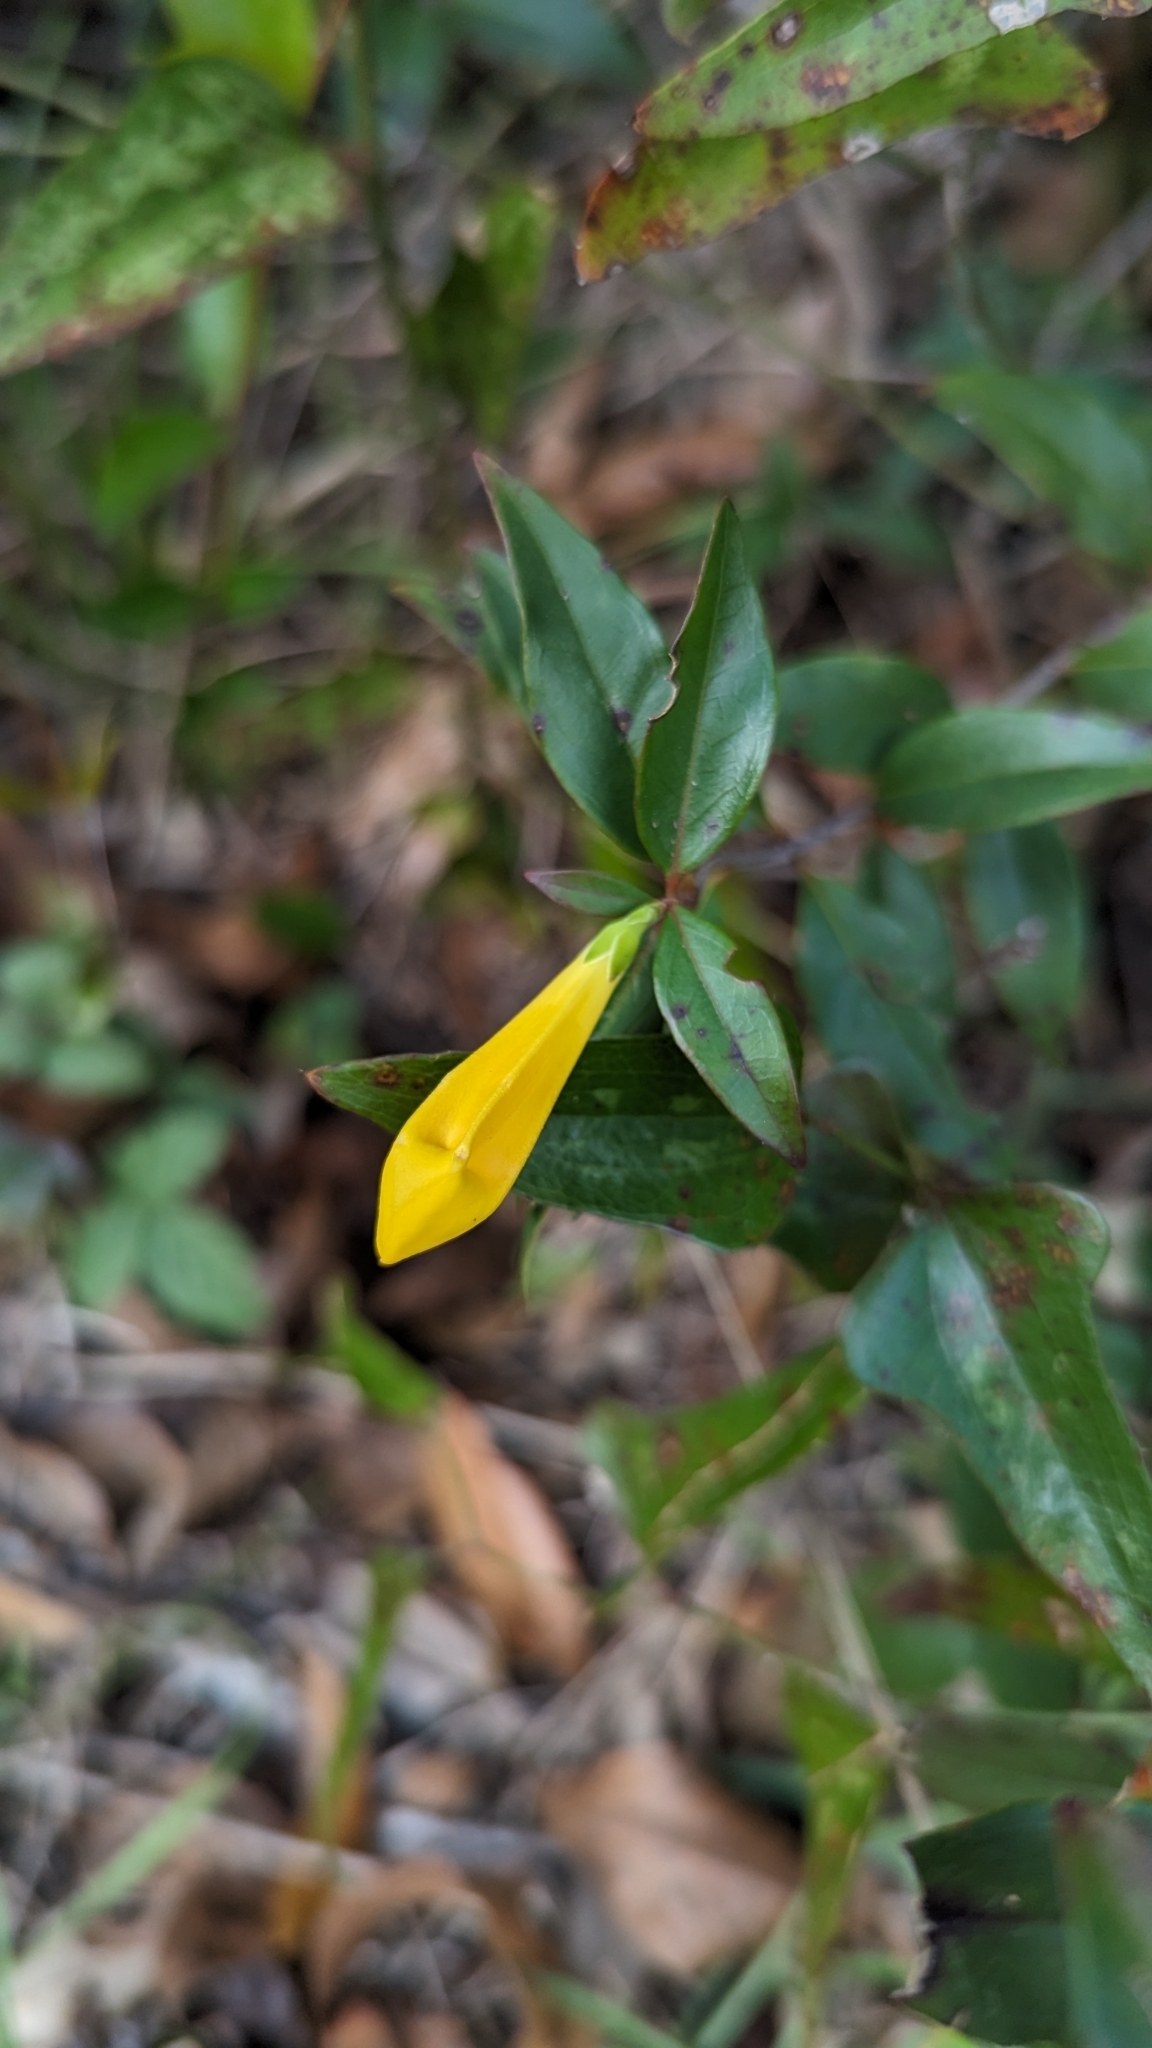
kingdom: Plantae
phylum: Tracheophyta
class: Magnoliopsida
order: Gentianales
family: Gelsemiaceae
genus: Gelsemium
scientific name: Gelsemium sempervirens
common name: Carolina-jasmine
